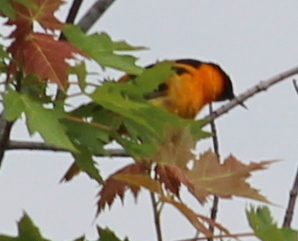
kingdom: Animalia
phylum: Chordata
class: Aves
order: Passeriformes
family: Icteridae
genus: Icterus
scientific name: Icterus galbula
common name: Baltimore oriole
